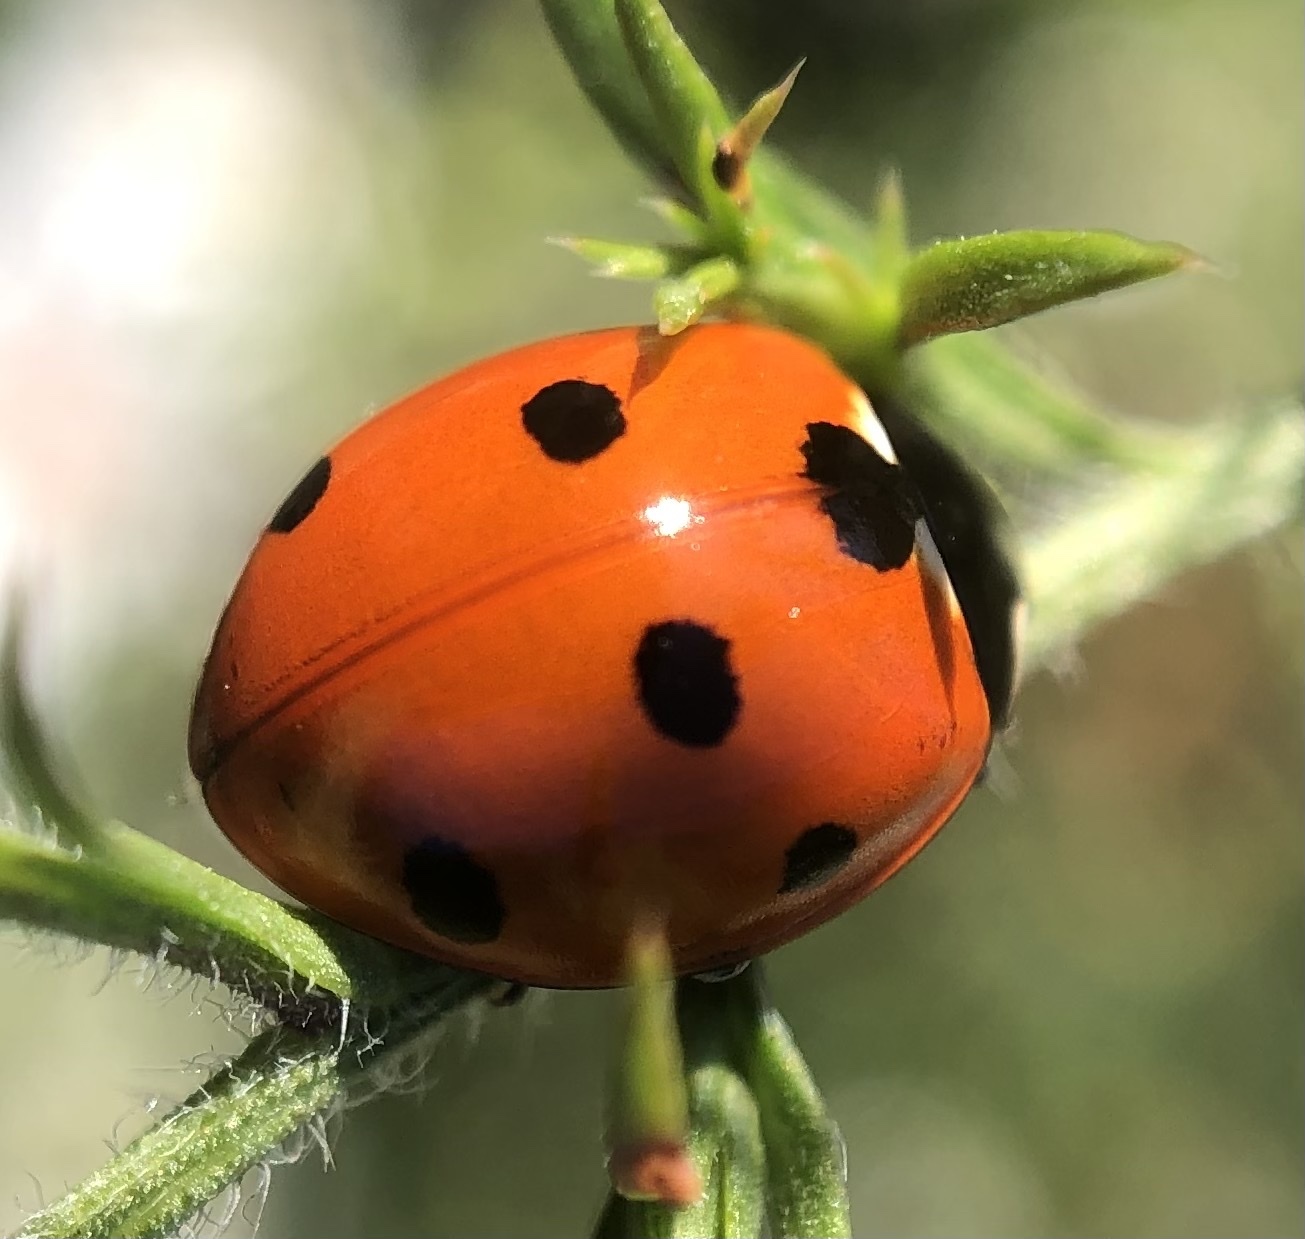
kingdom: Animalia
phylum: Arthropoda
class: Insecta
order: Coleoptera
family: Coccinellidae
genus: Coccinella
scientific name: Coccinella septempunctata
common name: Sevenspotted lady beetle
